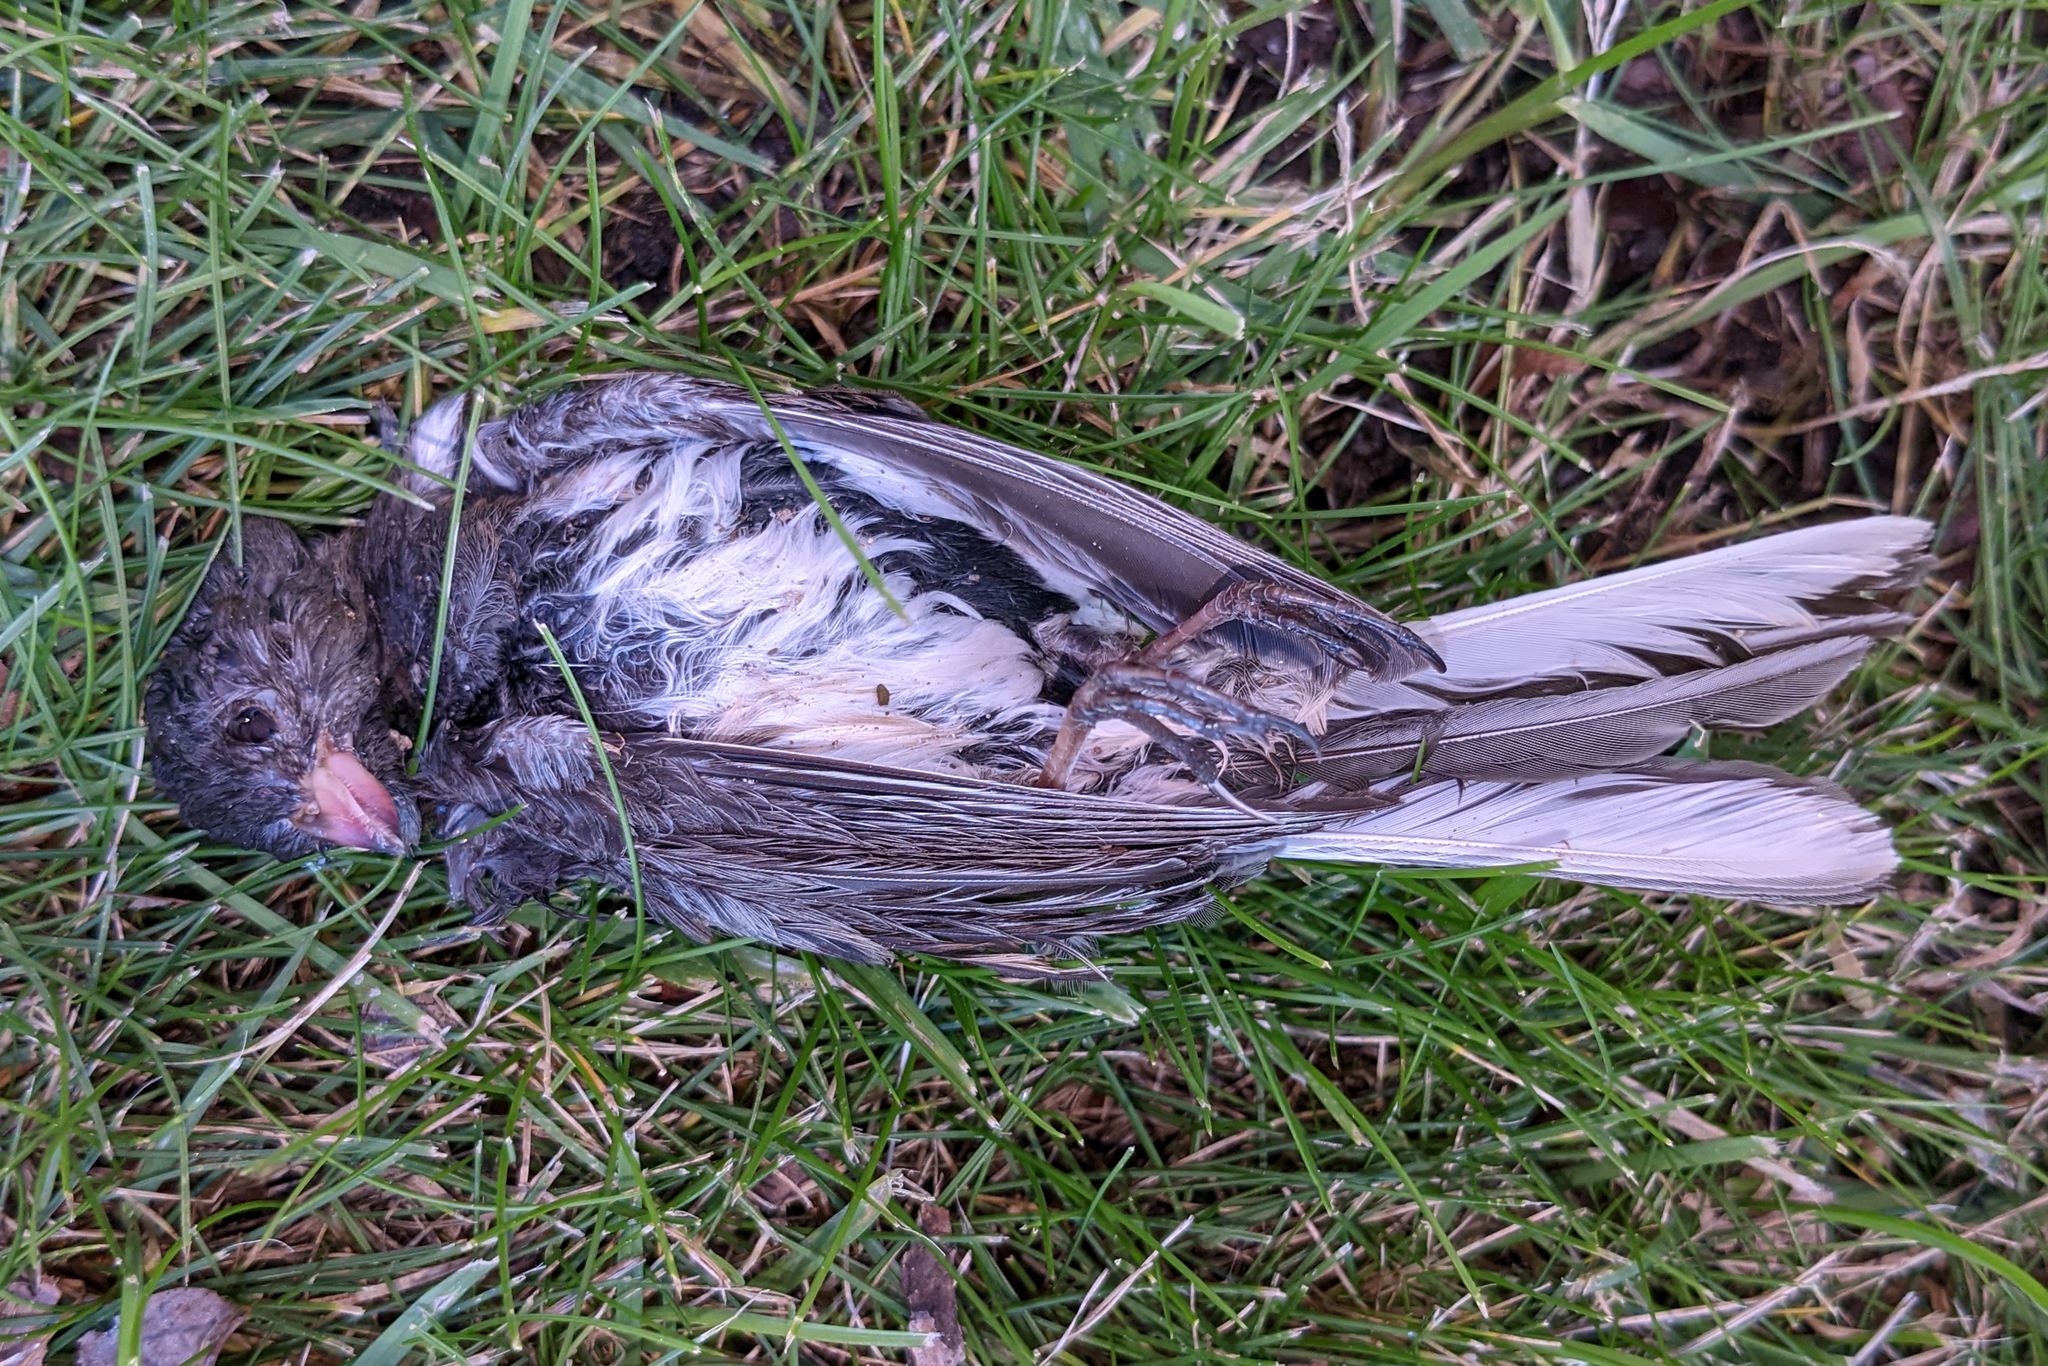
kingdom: Animalia
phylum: Chordata
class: Aves
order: Passeriformes
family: Passerellidae
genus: Junco
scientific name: Junco hyemalis
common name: Dark-eyed junco
